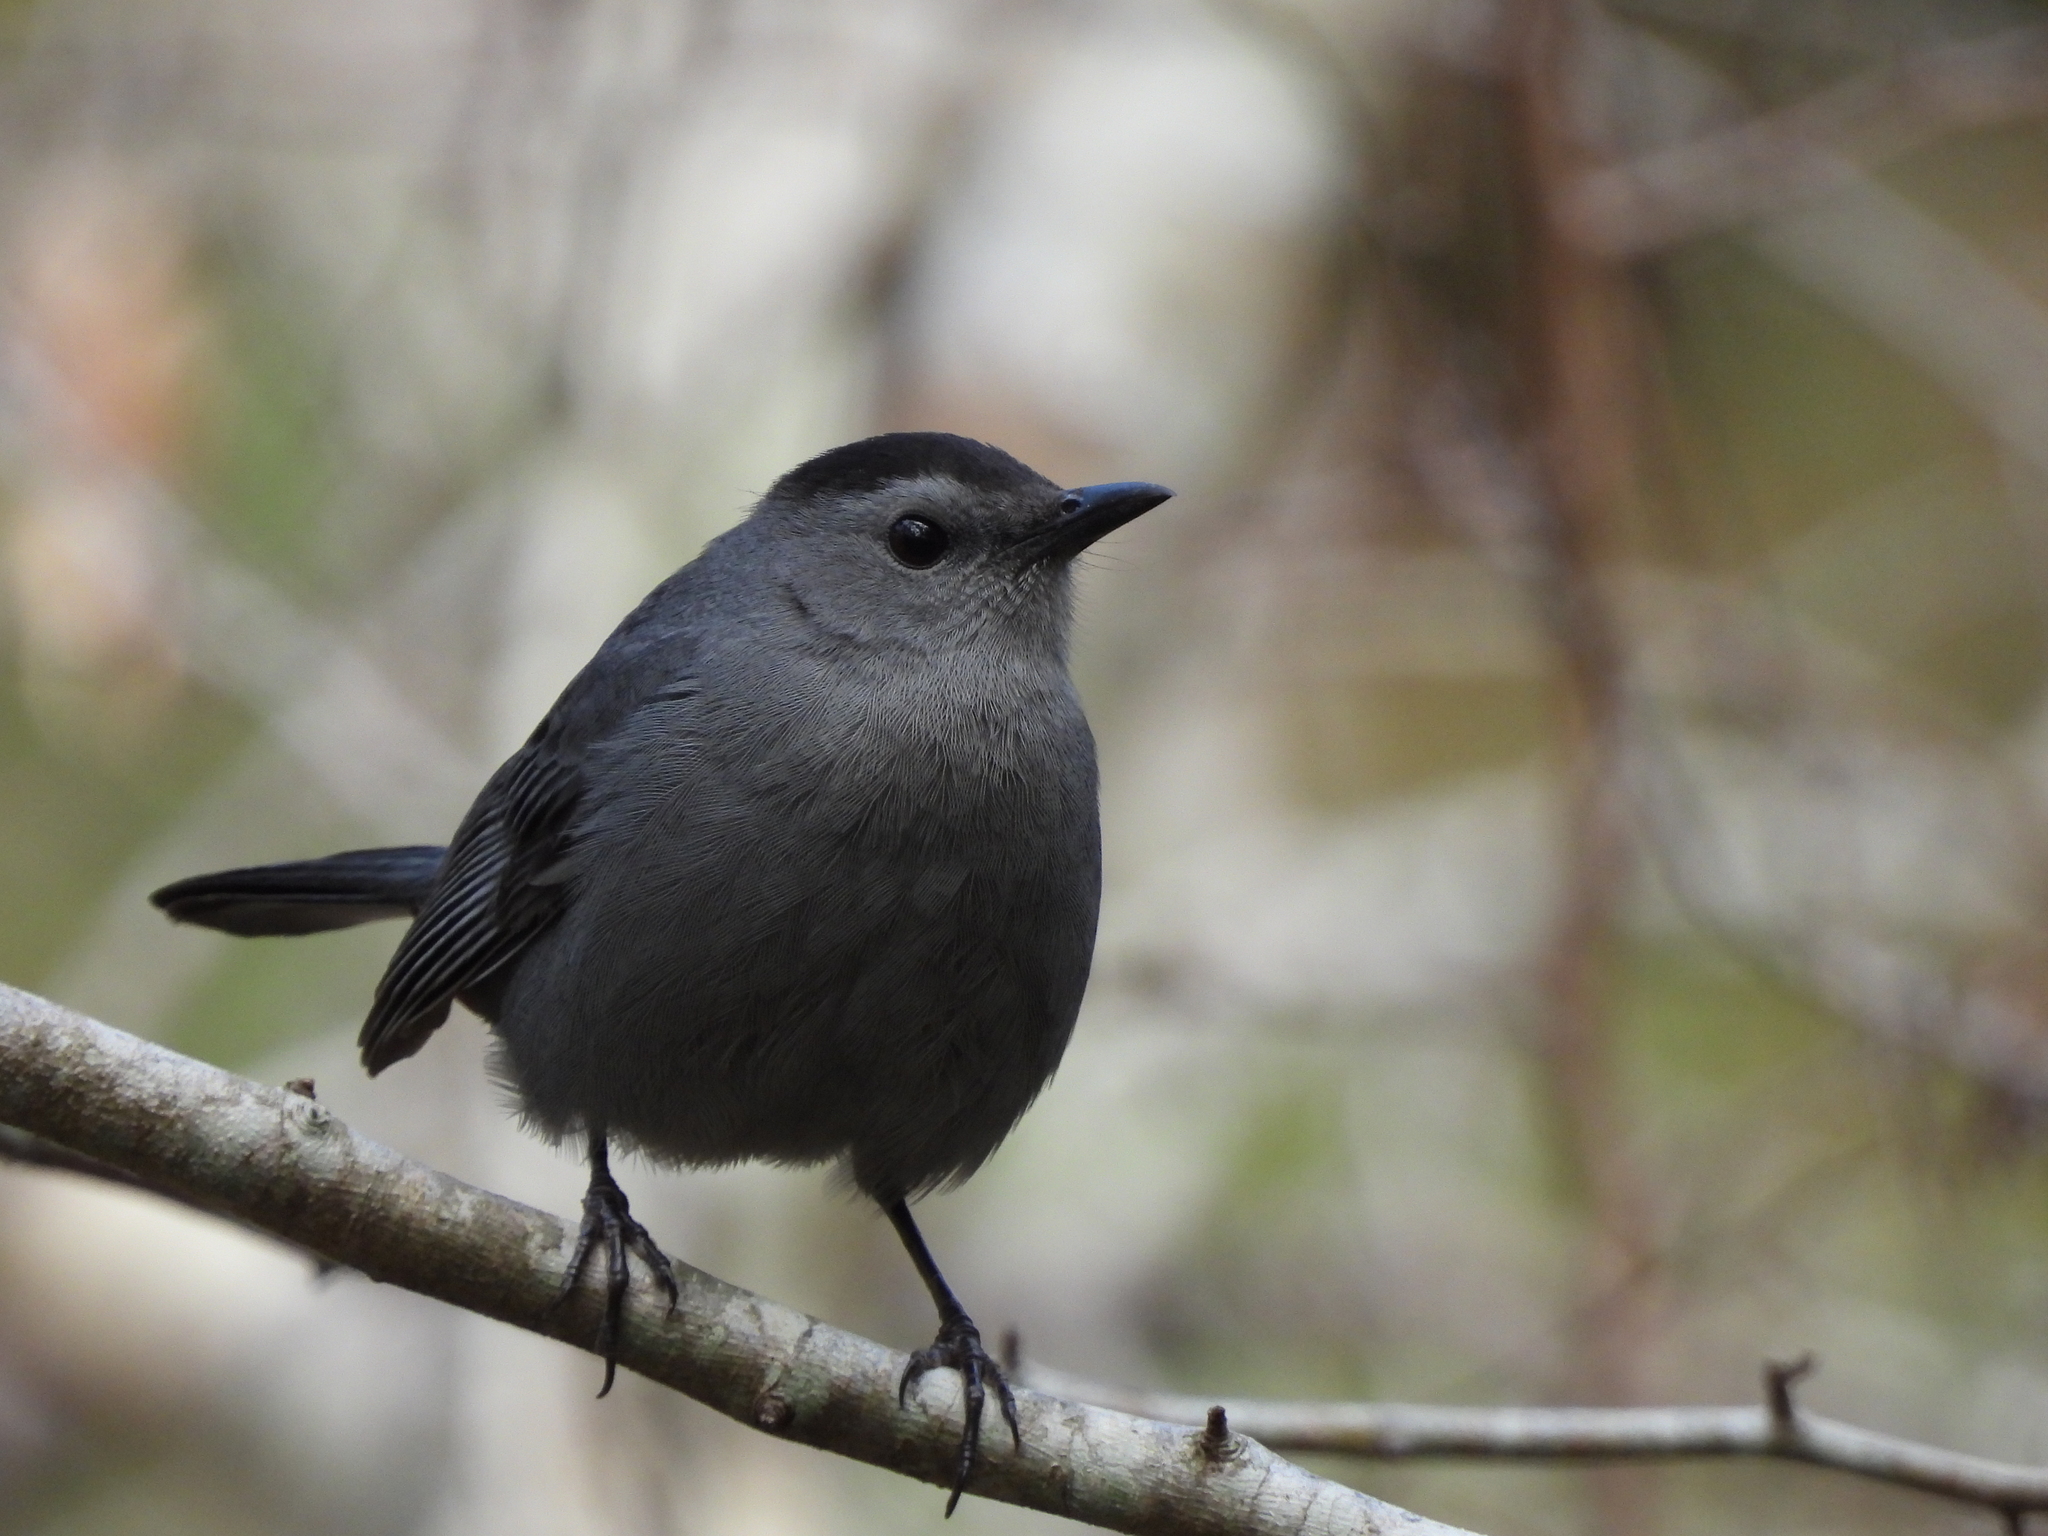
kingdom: Animalia
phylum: Chordata
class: Aves
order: Passeriformes
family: Mimidae
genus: Dumetella
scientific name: Dumetella carolinensis
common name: Gray catbird
